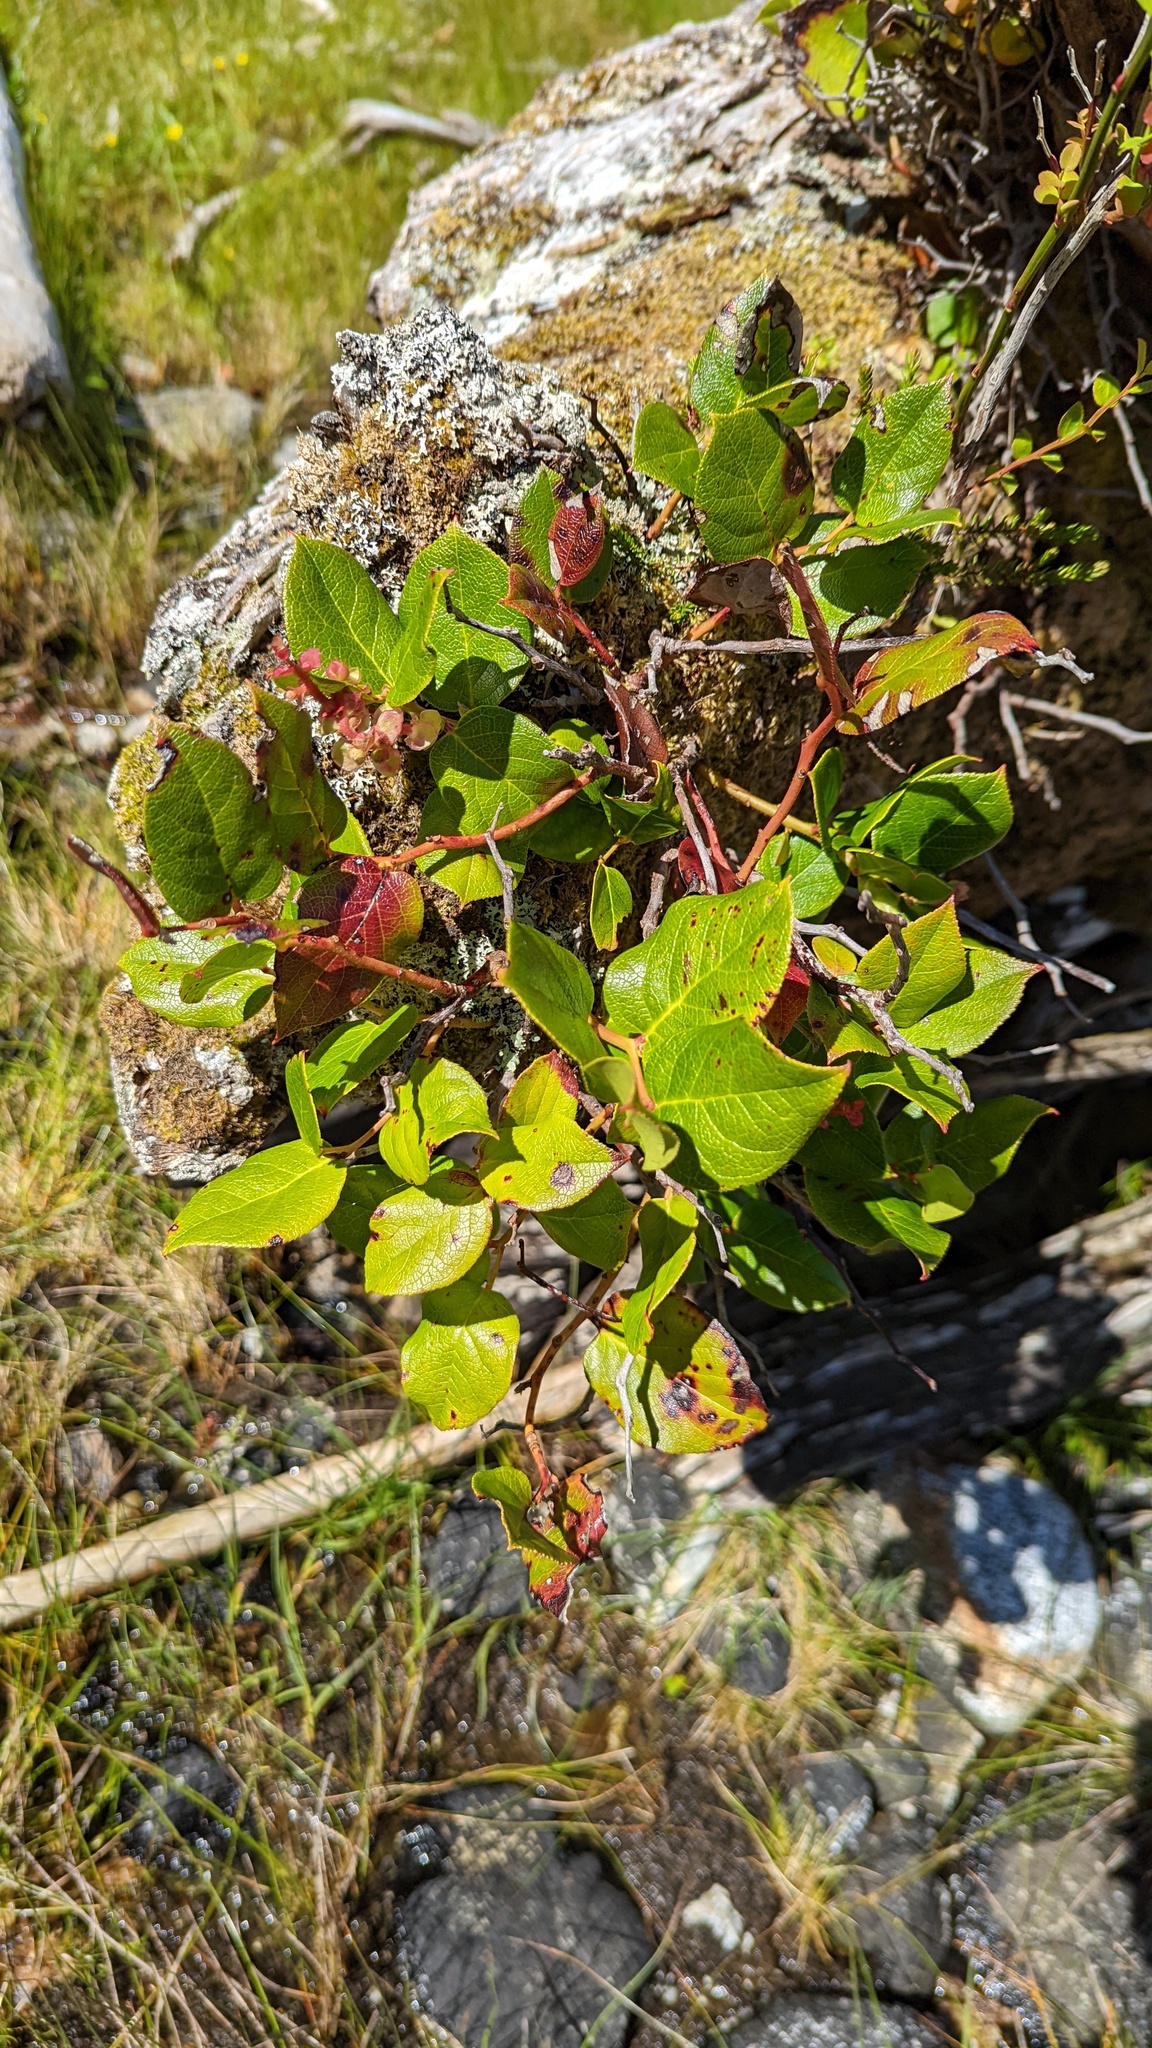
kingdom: Plantae
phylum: Tracheophyta
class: Magnoliopsida
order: Ericales
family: Ericaceae
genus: Gaultheria
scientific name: Gaultheria shallon
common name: Shallon
